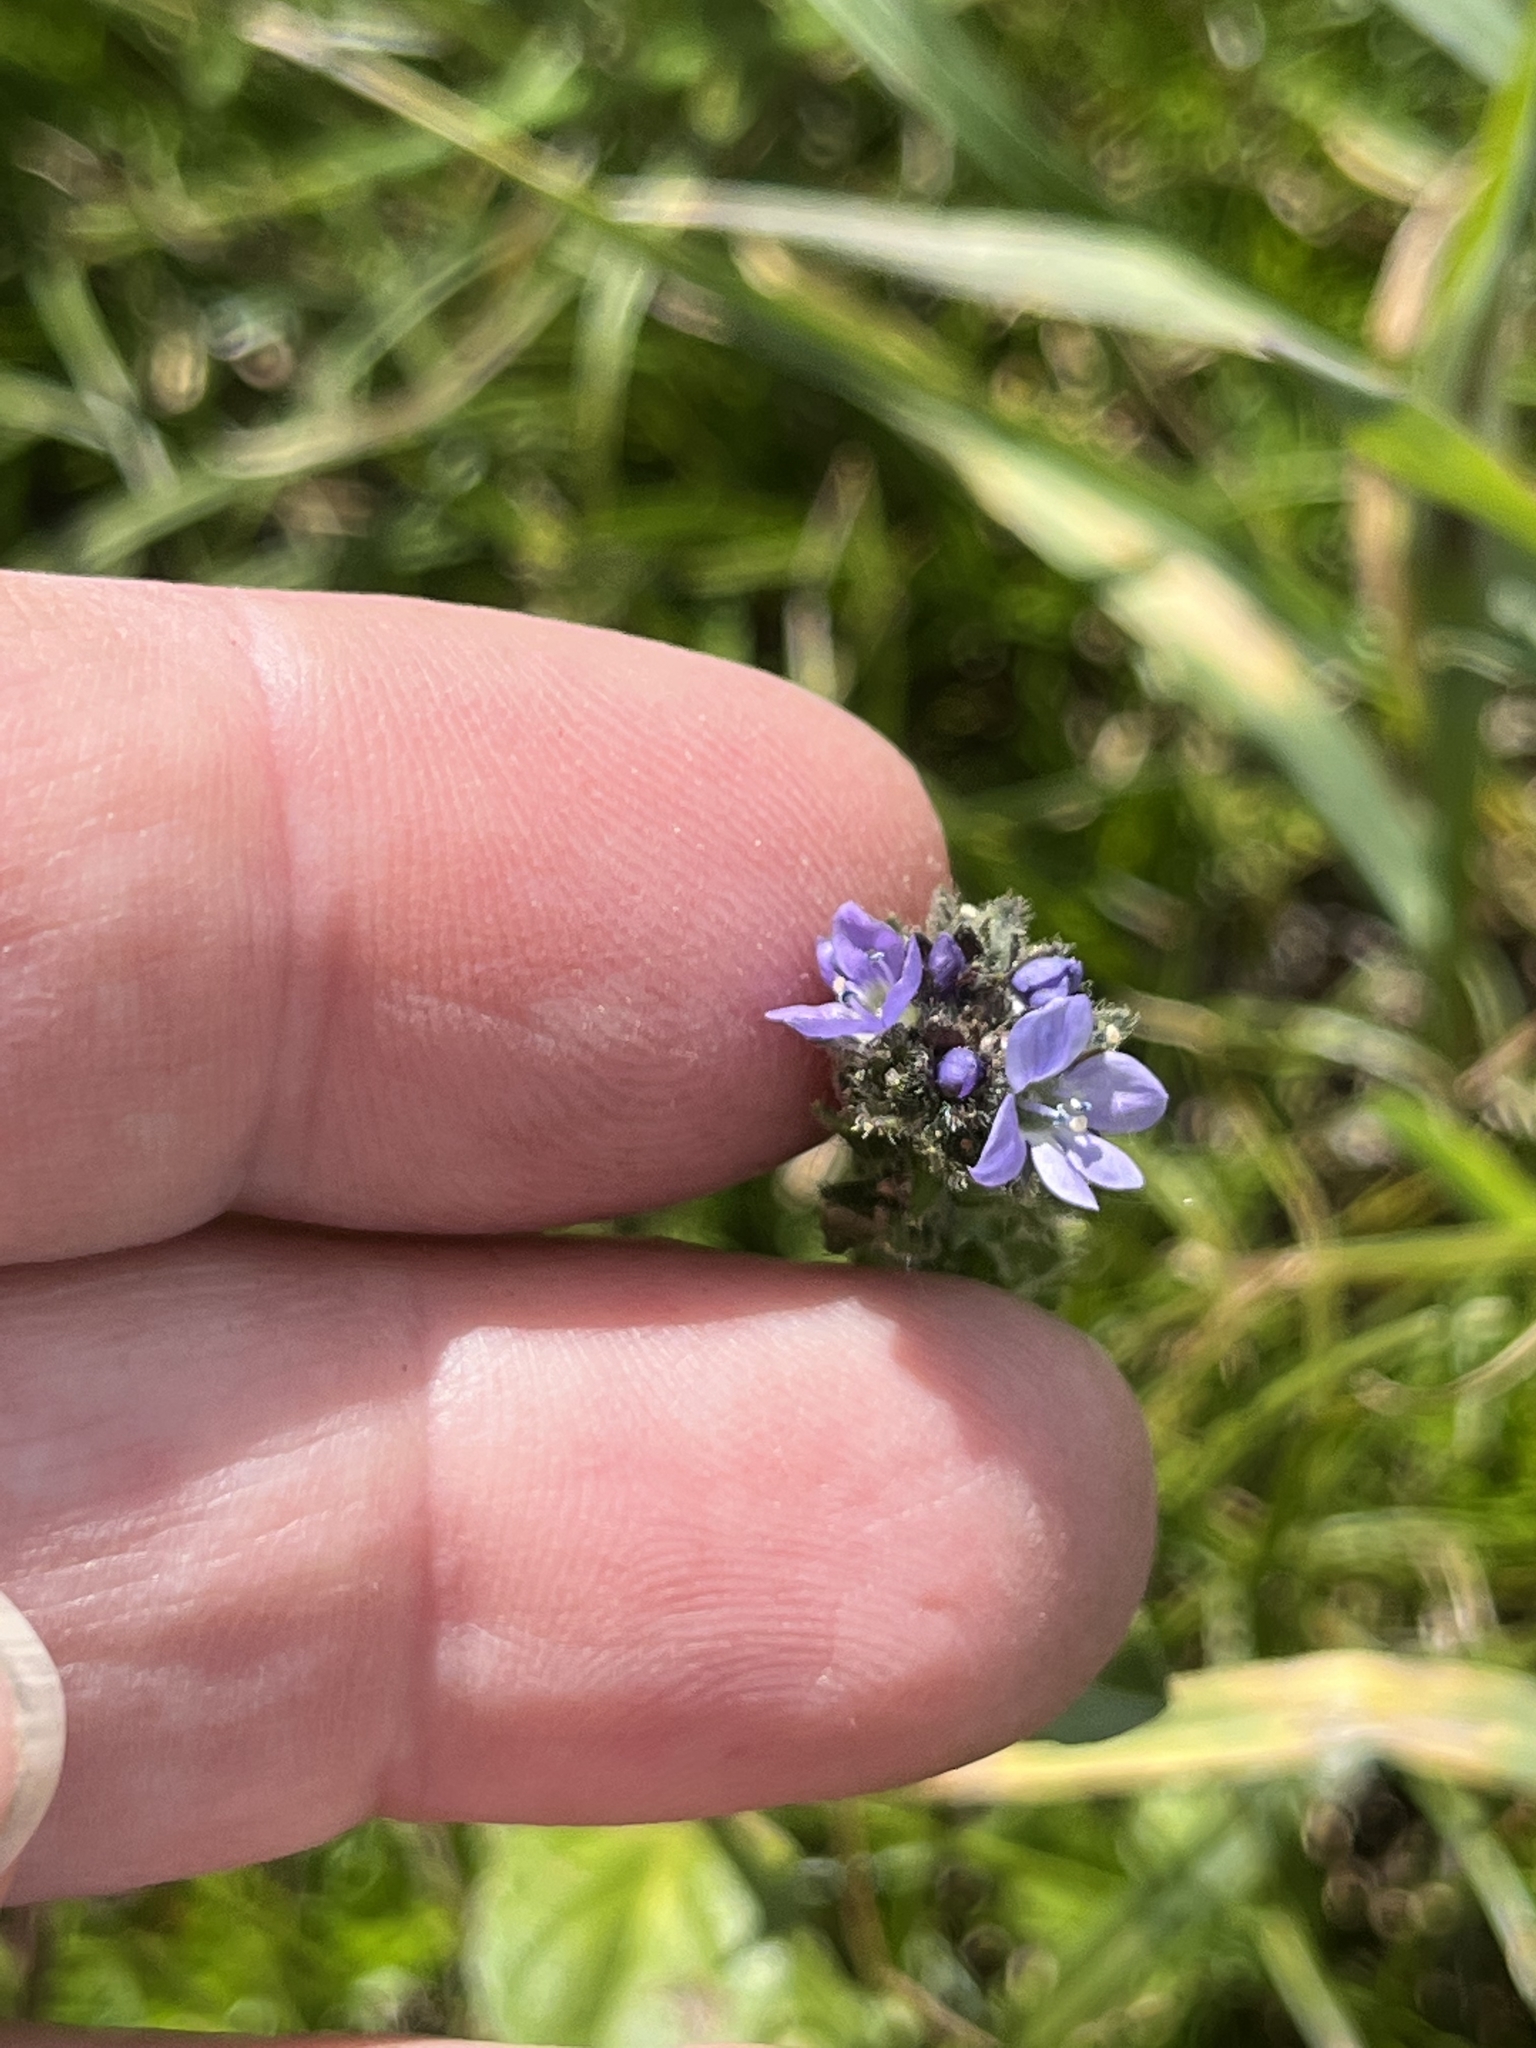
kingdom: Plantae
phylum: Tracheophyta
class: Magnoliopsida
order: Lamiales
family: Plantaginaceae
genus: Veronica
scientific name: Veronica wormskjoldii
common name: American alpine speedwell
